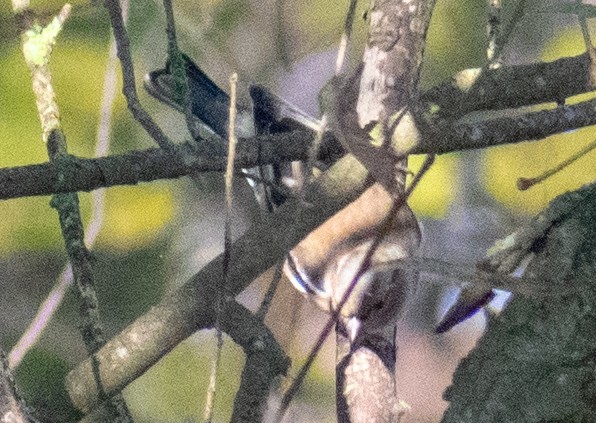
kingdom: Animalia
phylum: Chordata
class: Aves
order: Passeriformes
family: Fringillidae
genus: Fringilla
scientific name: Fringilla coelebs
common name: Common chaffinch
